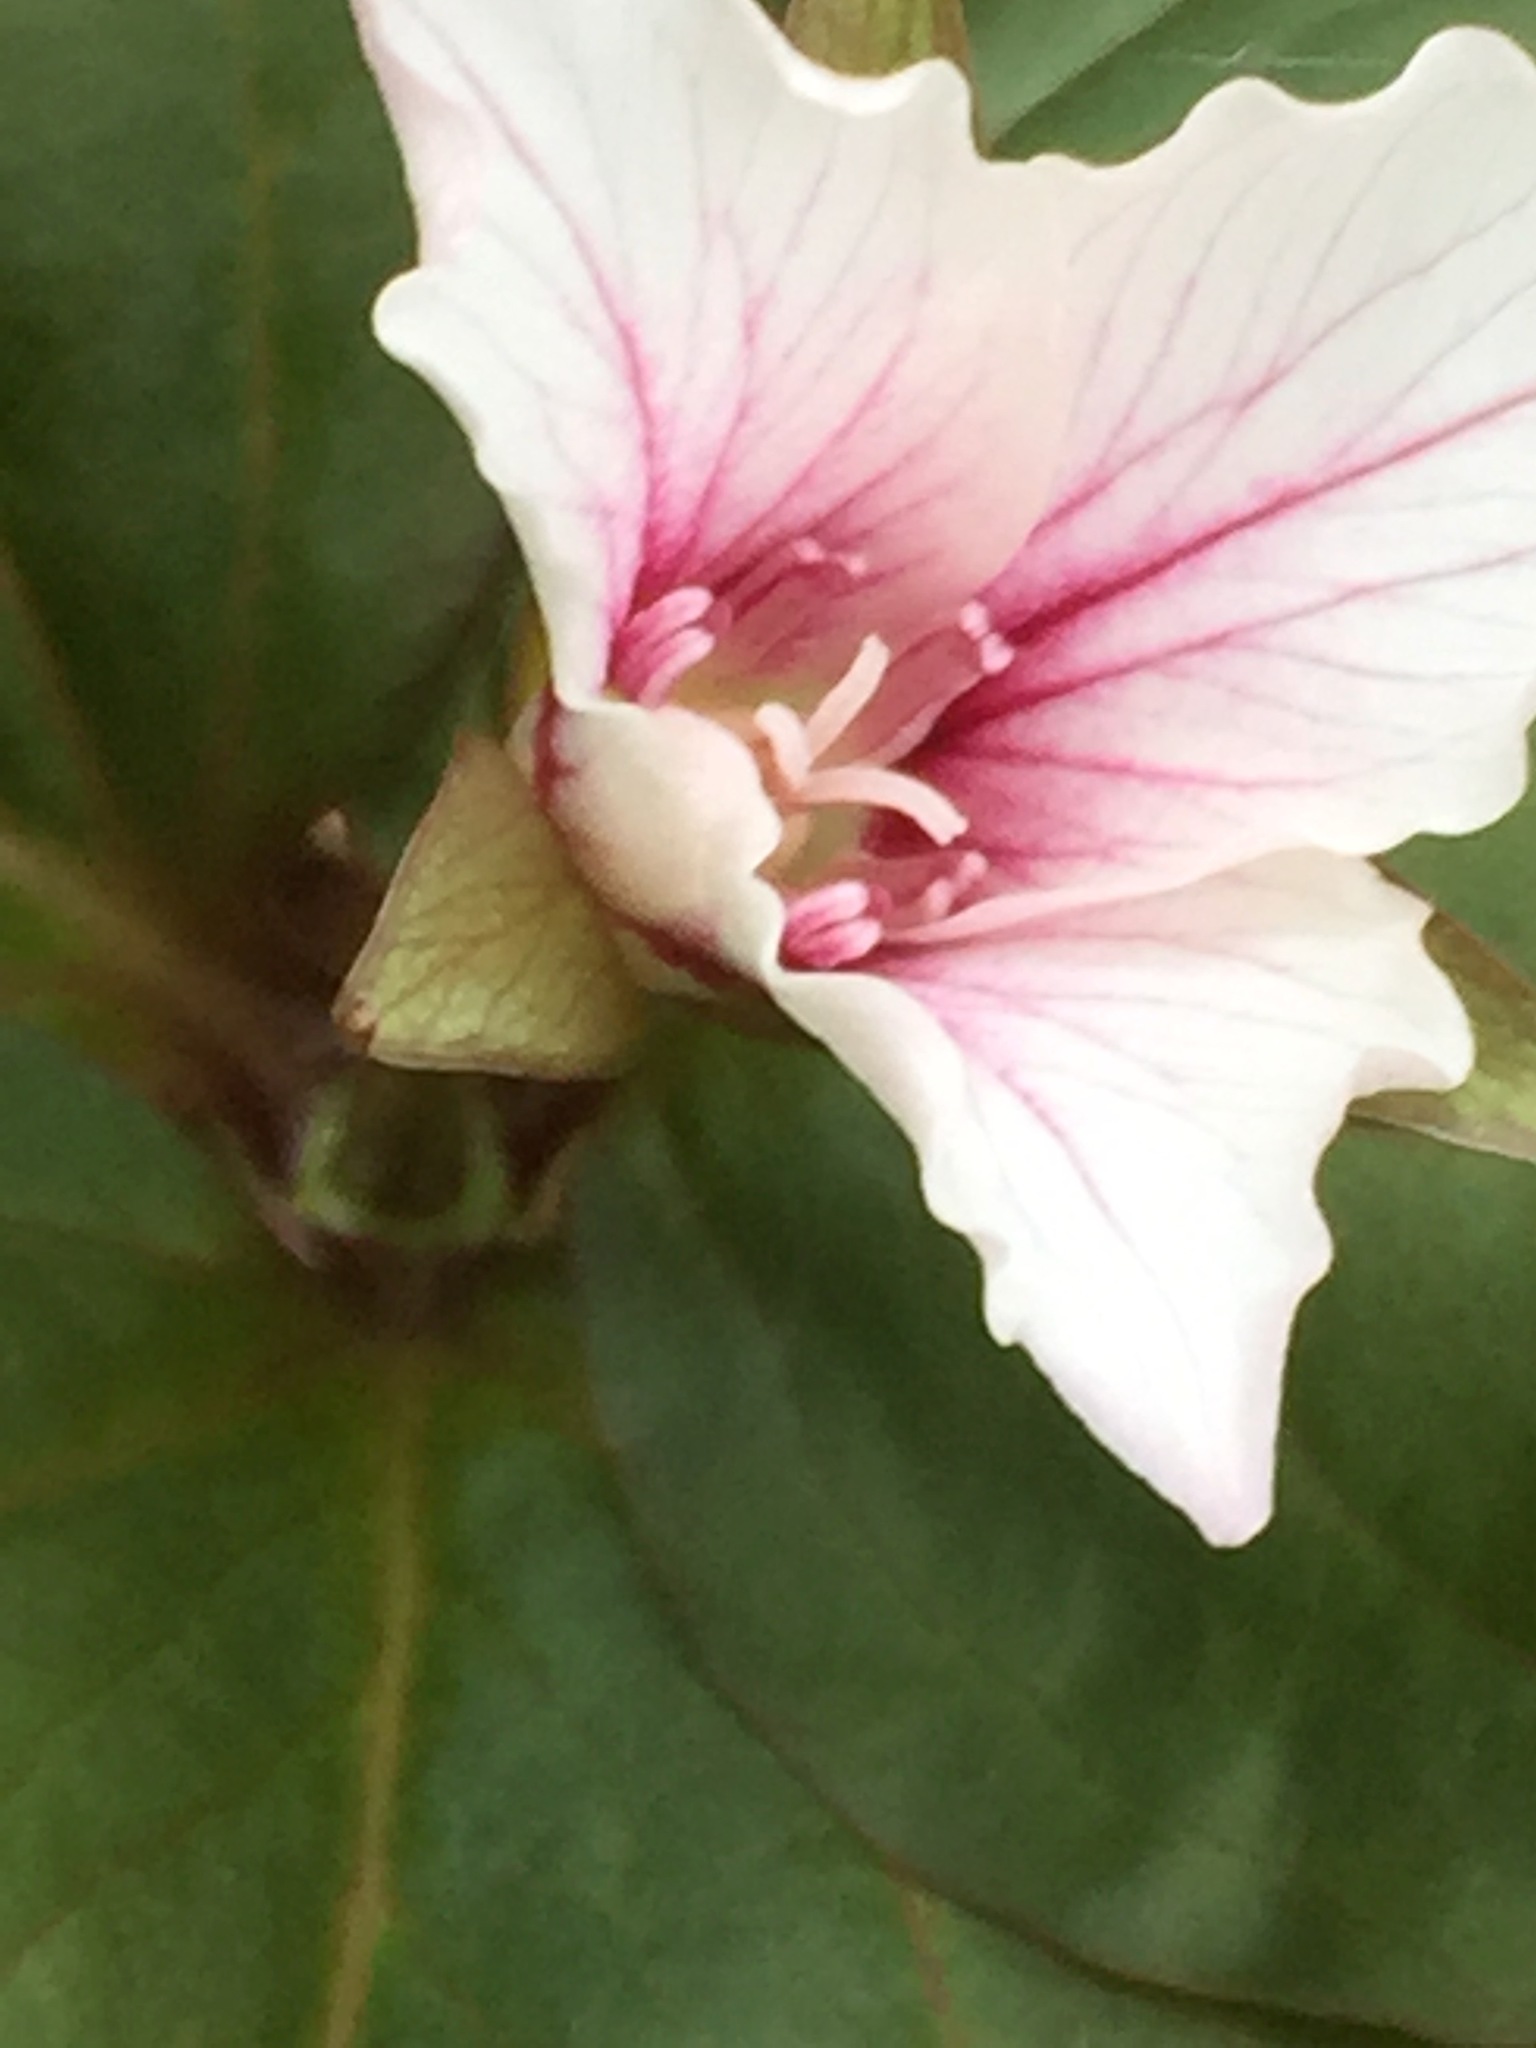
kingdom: Plantae
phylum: Tracheophyta
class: Liliopsida
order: Liliales
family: Melanthiaceae
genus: Trillium
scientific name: Trillium undulatum
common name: Paint trillium
